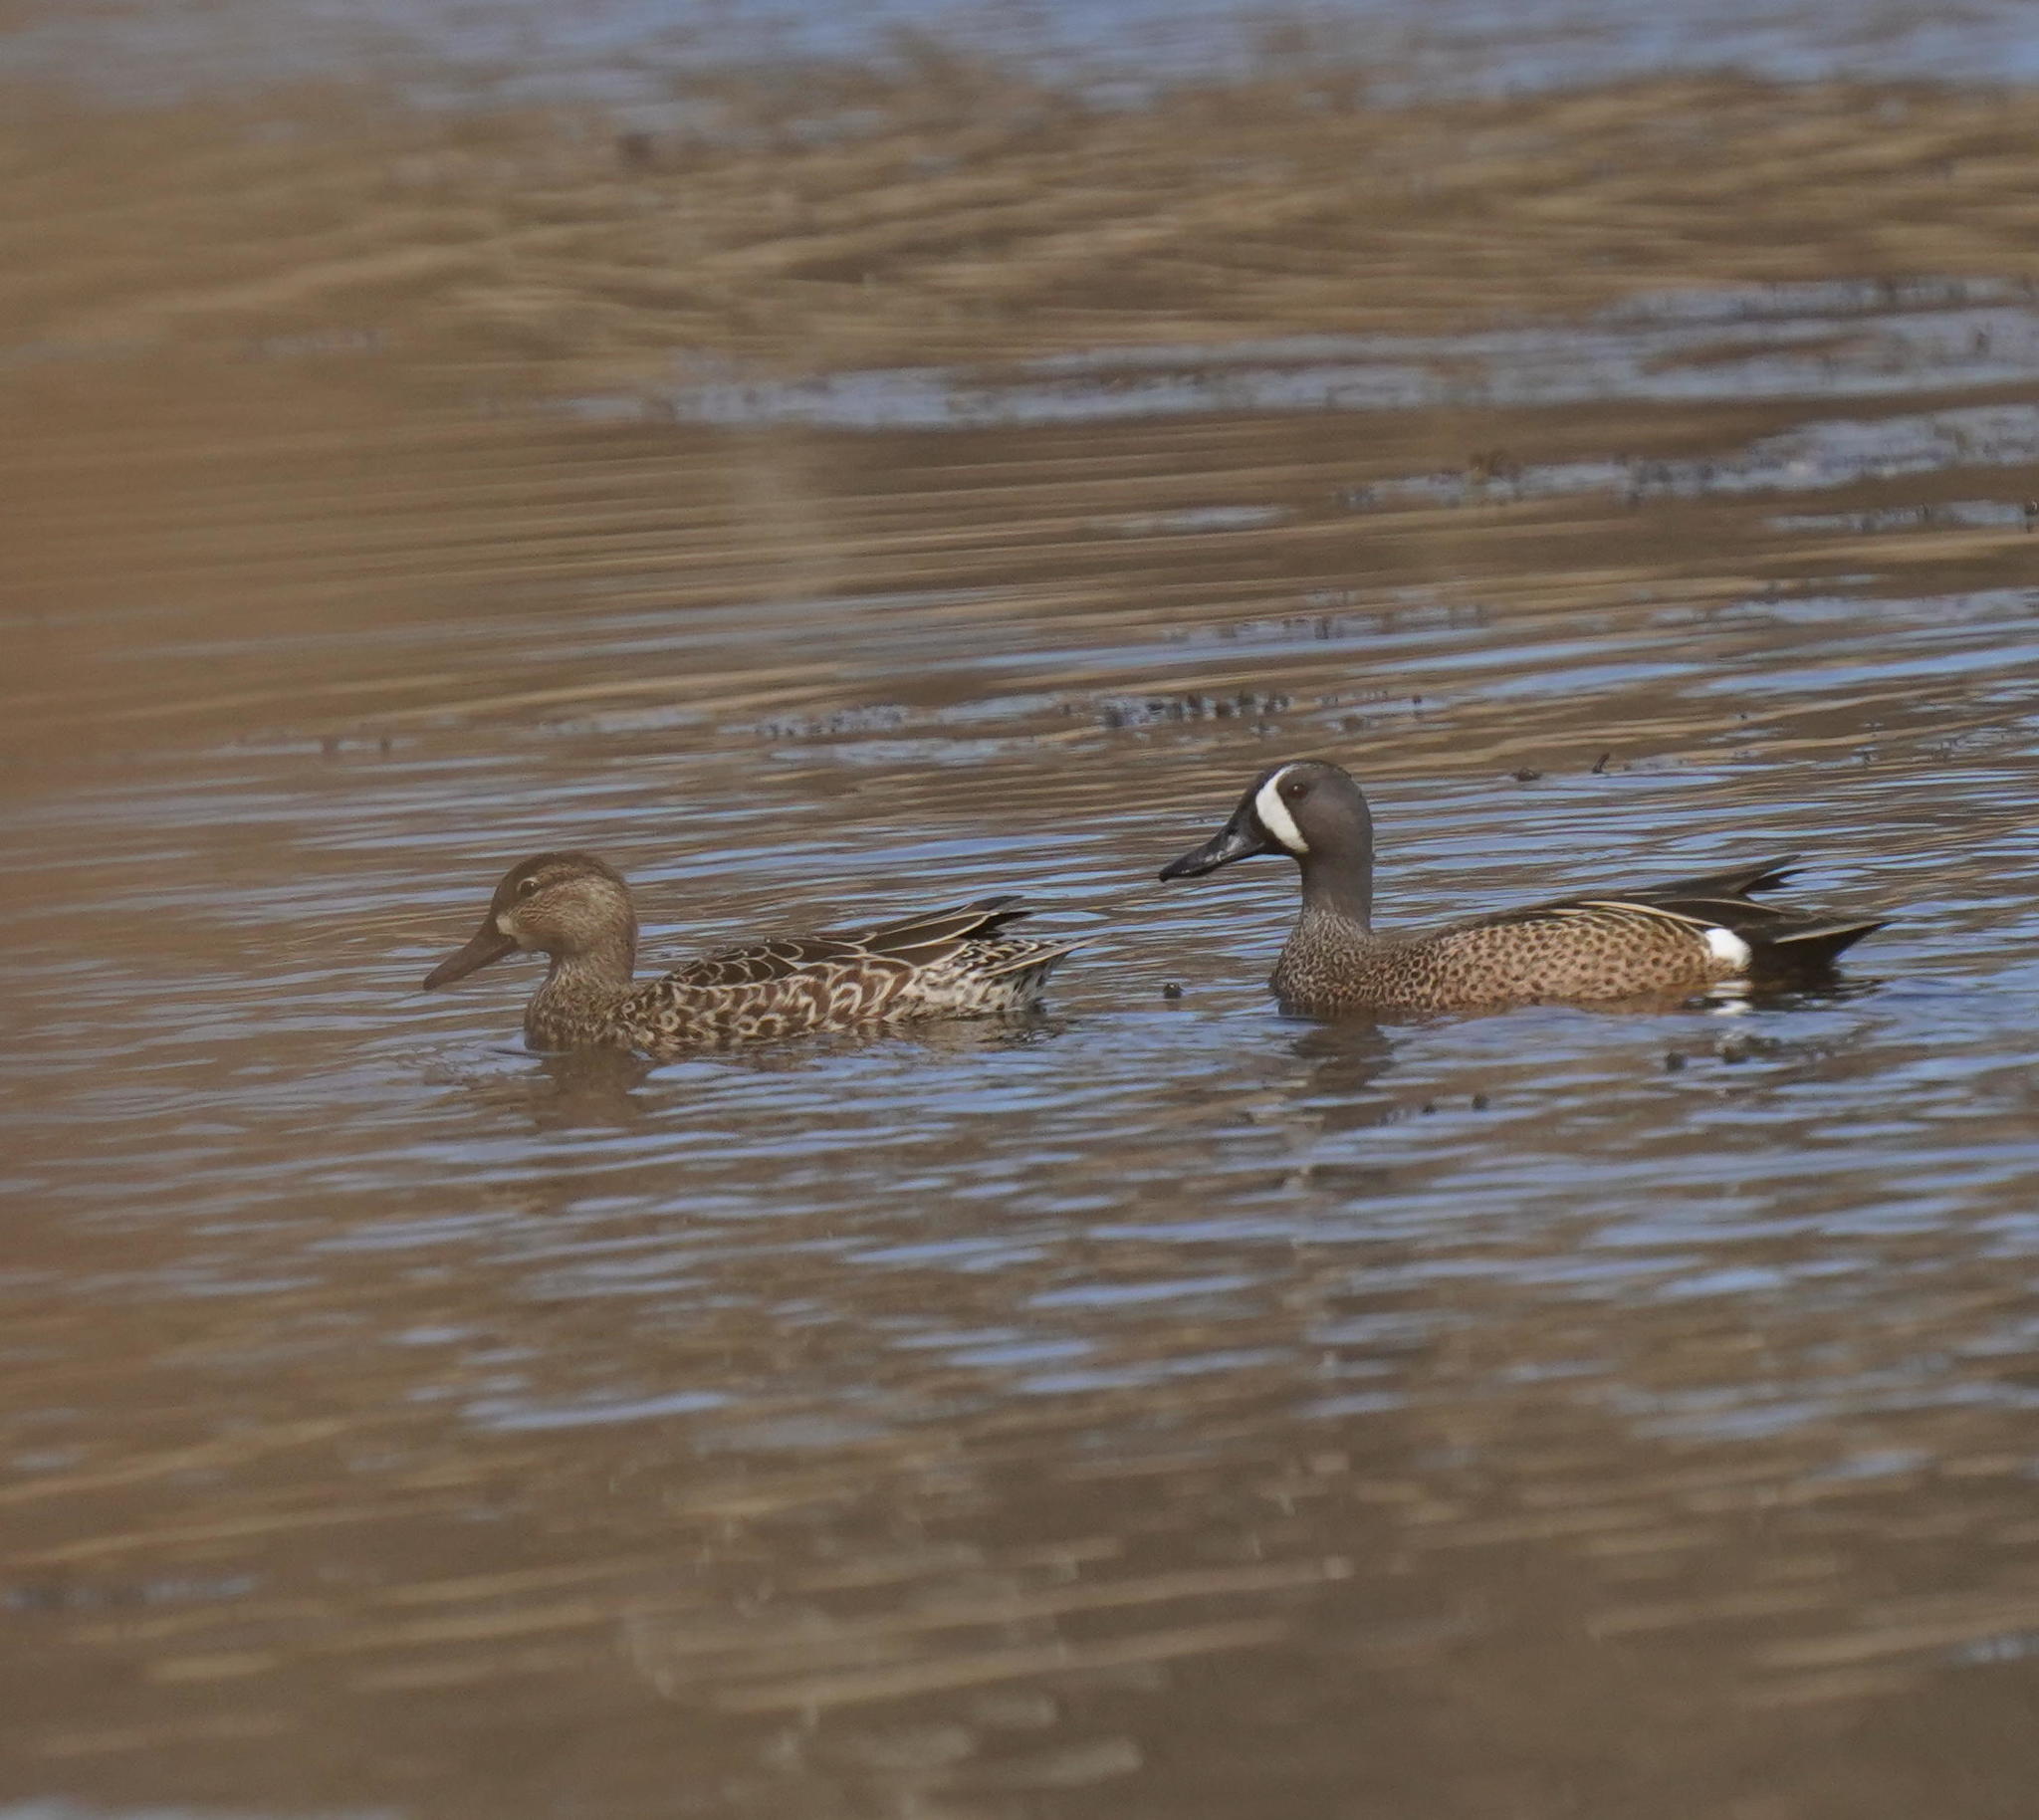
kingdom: Animalia
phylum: Chordata
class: Aves
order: Anseriformes
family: Anatidae
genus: Spatula
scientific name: Spatula discors
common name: Blue-winged teal
